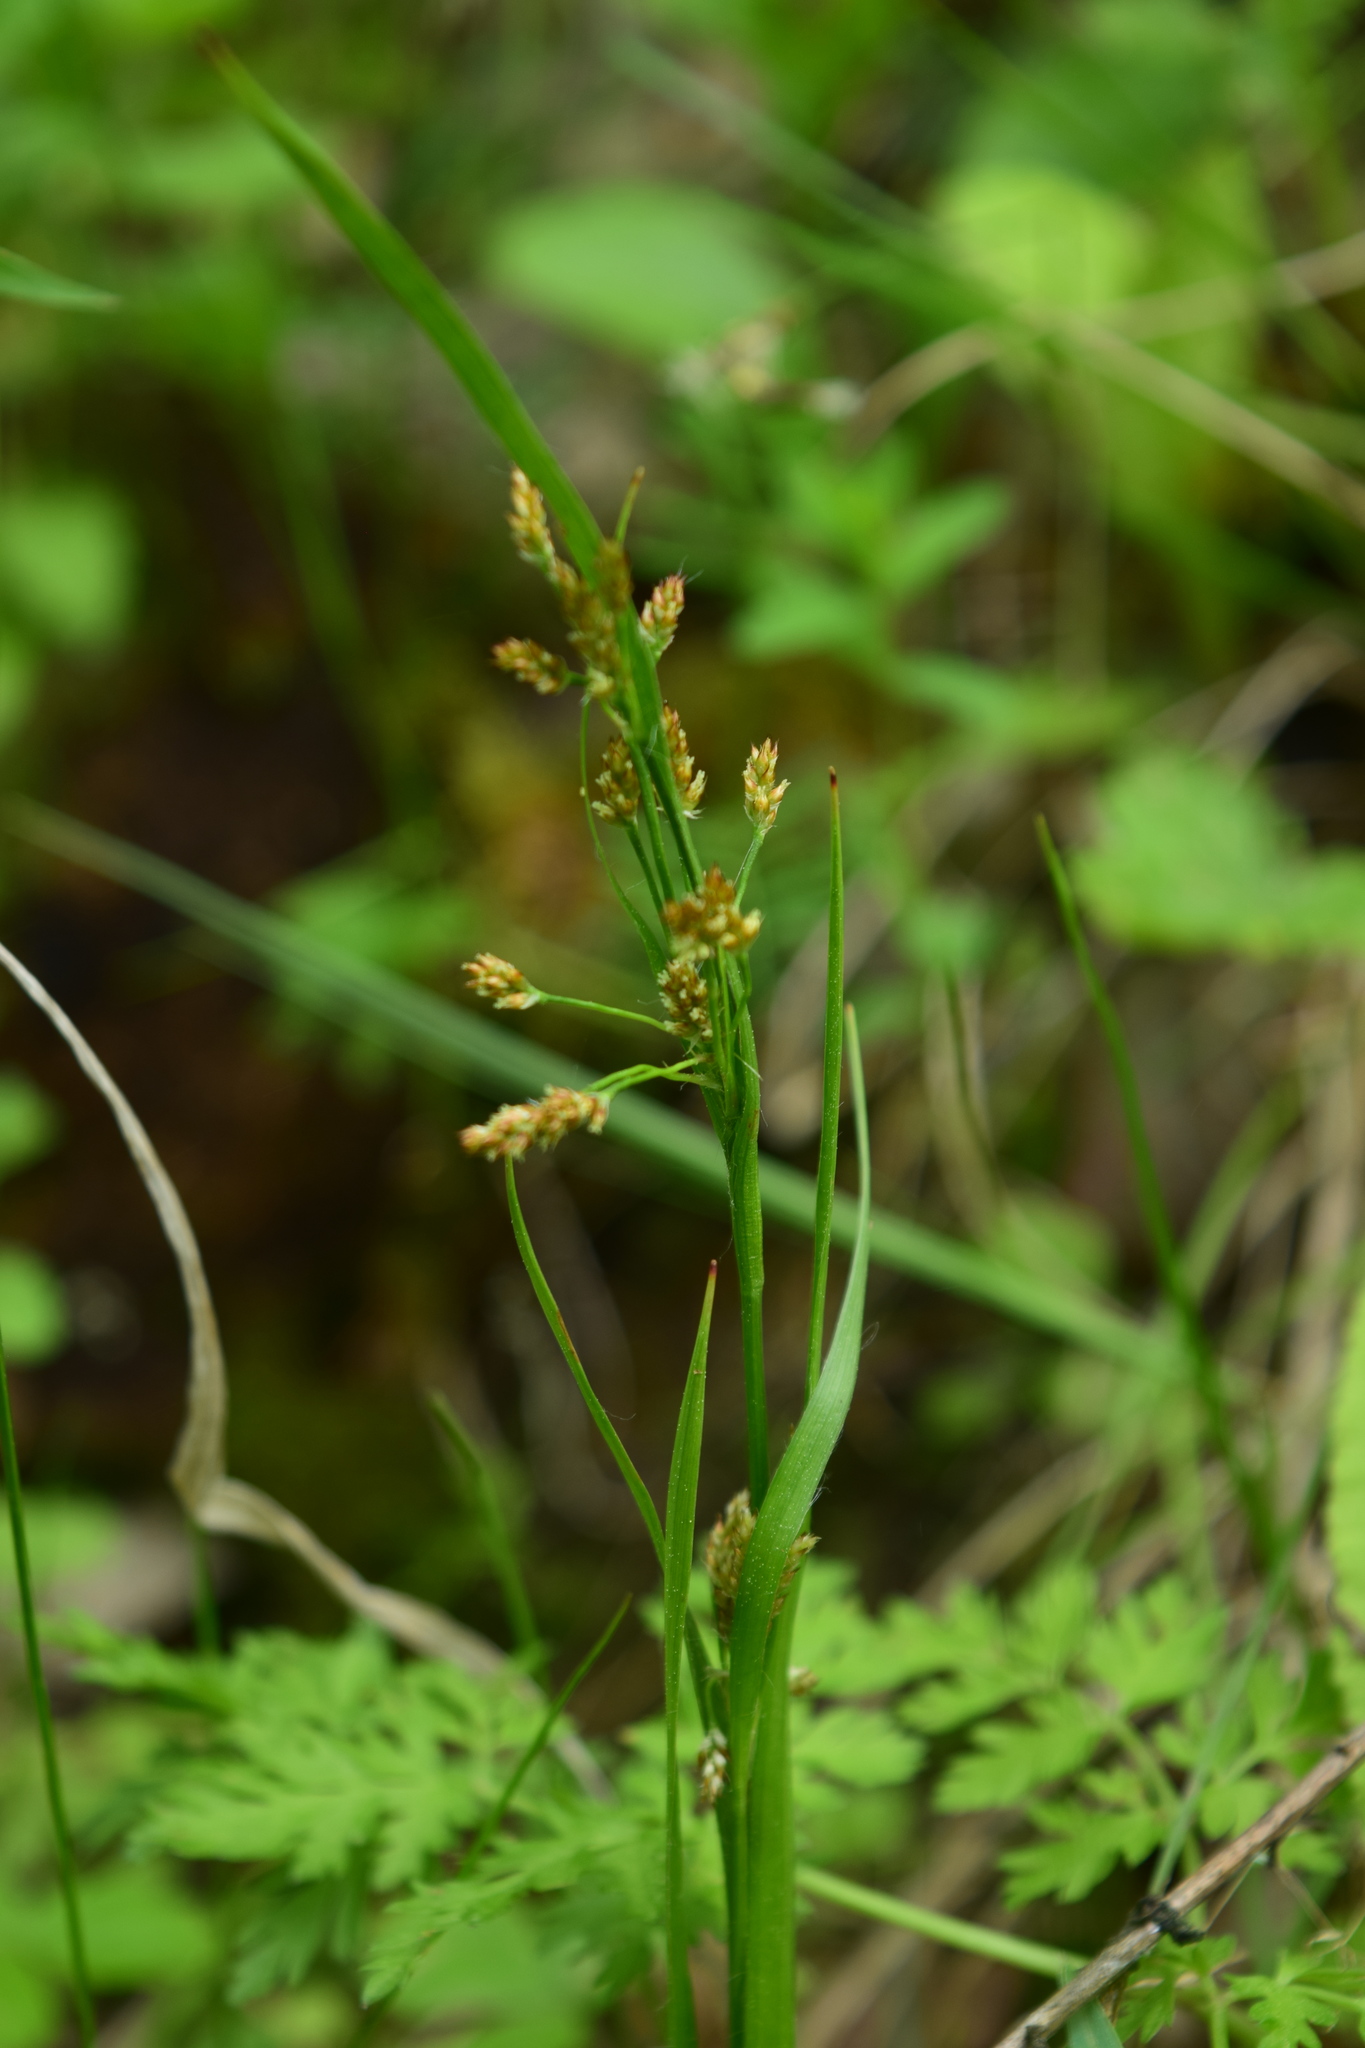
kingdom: Plantae
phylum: Tracheophyta
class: Liliopsida
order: Poales
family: Juncaceae
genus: Luzula
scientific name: Luzula pallescens
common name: Fen wood-rush
